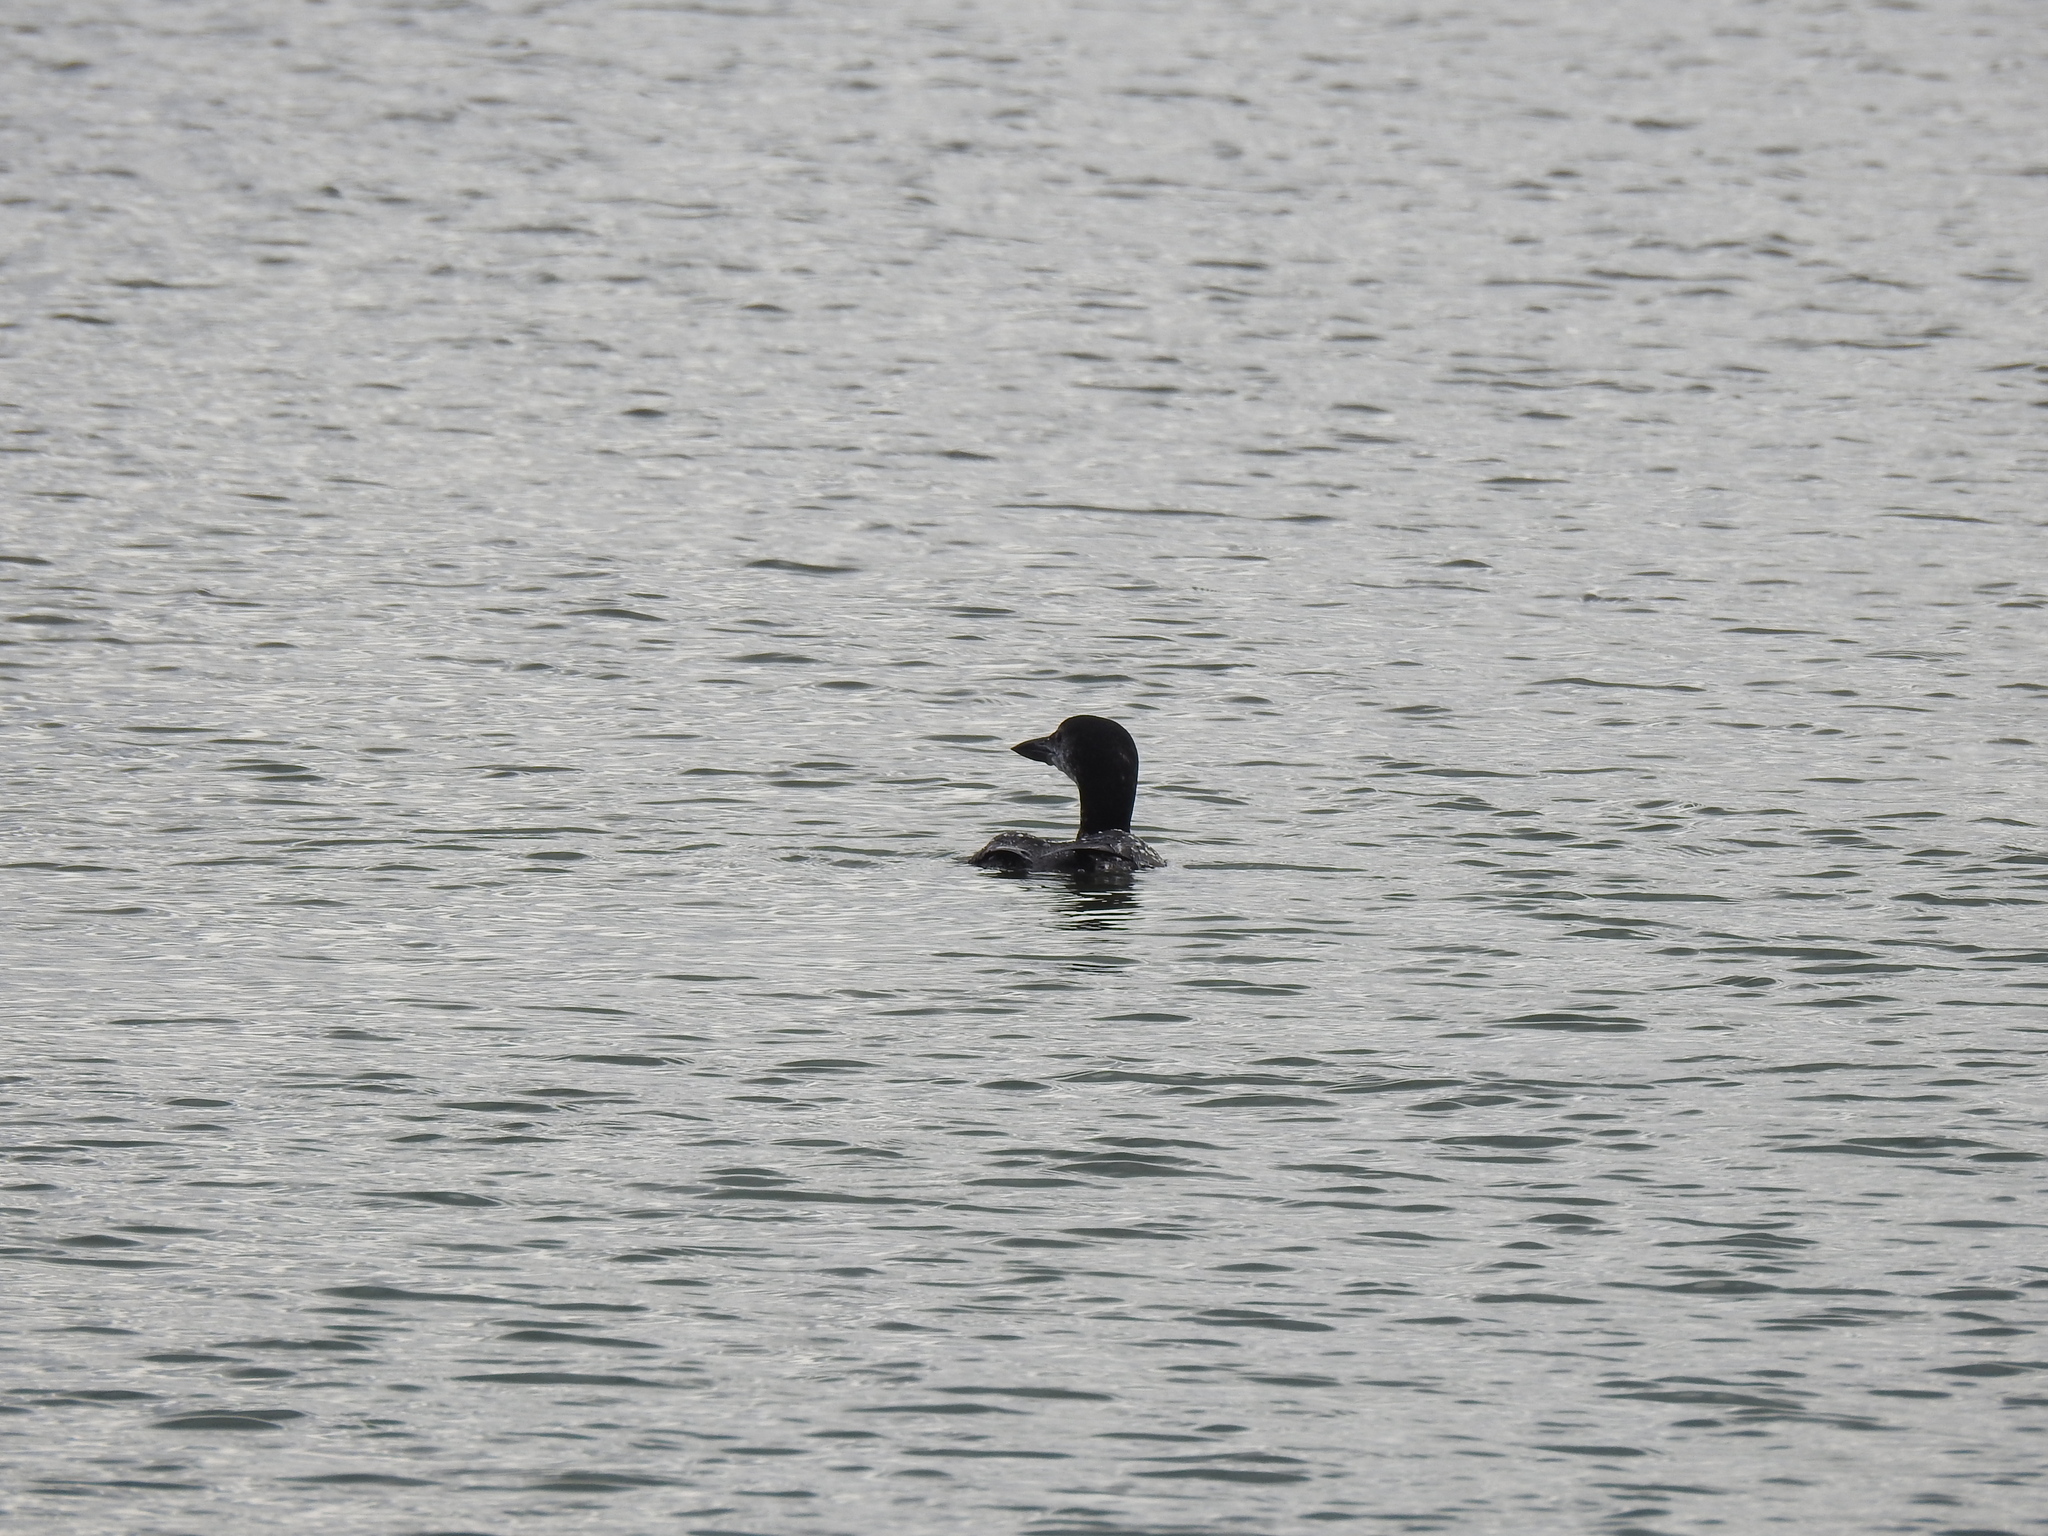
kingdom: Animalia
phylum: Chordata
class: Aves
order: Gaviiformes
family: Gaviidae
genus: Gavia
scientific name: Gavia immer
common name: Common loon
